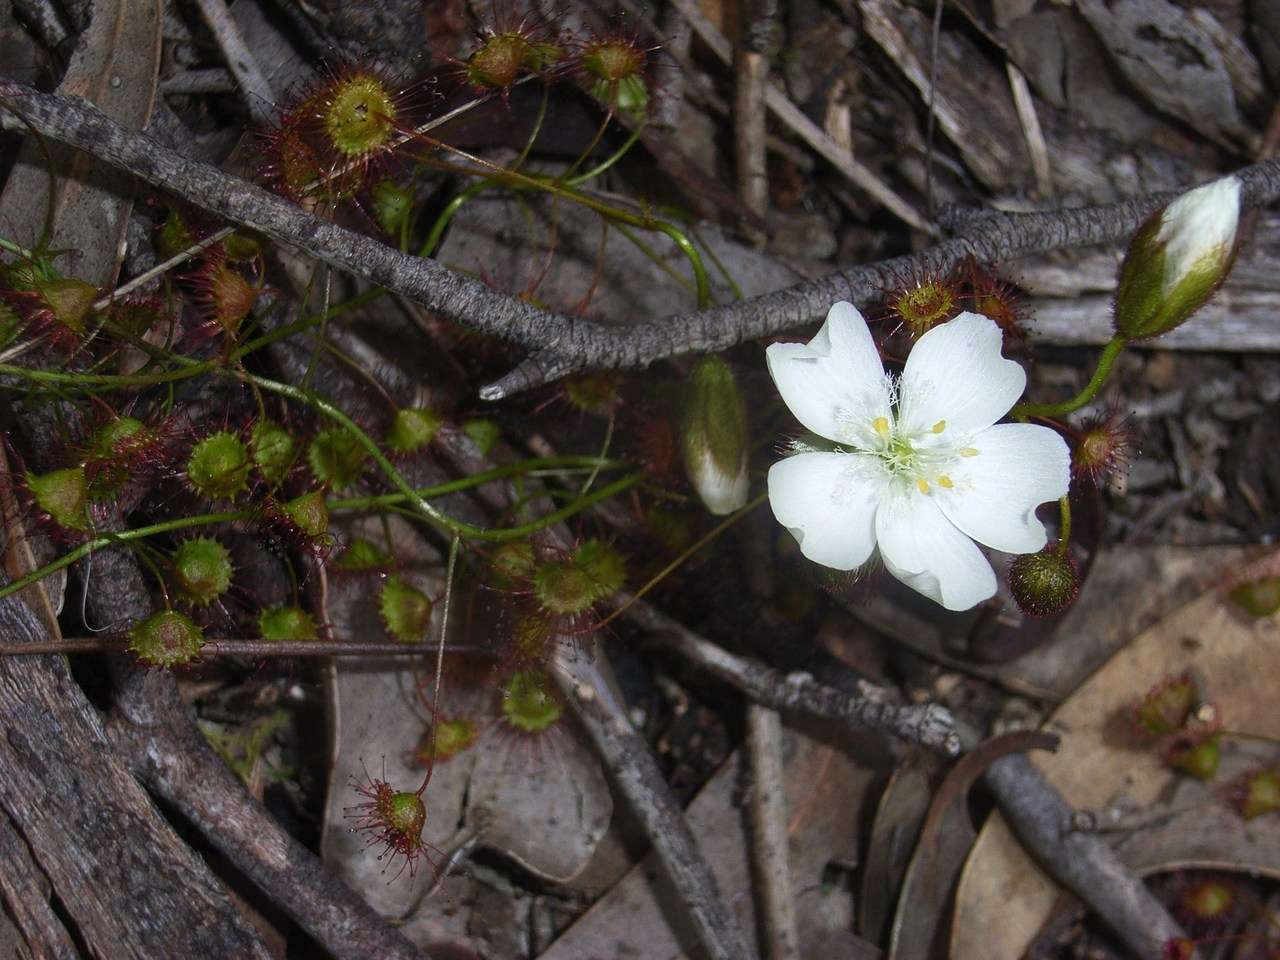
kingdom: Plantae
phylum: Tracheophyta
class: Magnoliopsida
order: Caryophyllales
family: Droseraceae
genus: Drosera
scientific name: Drosera planchonii
